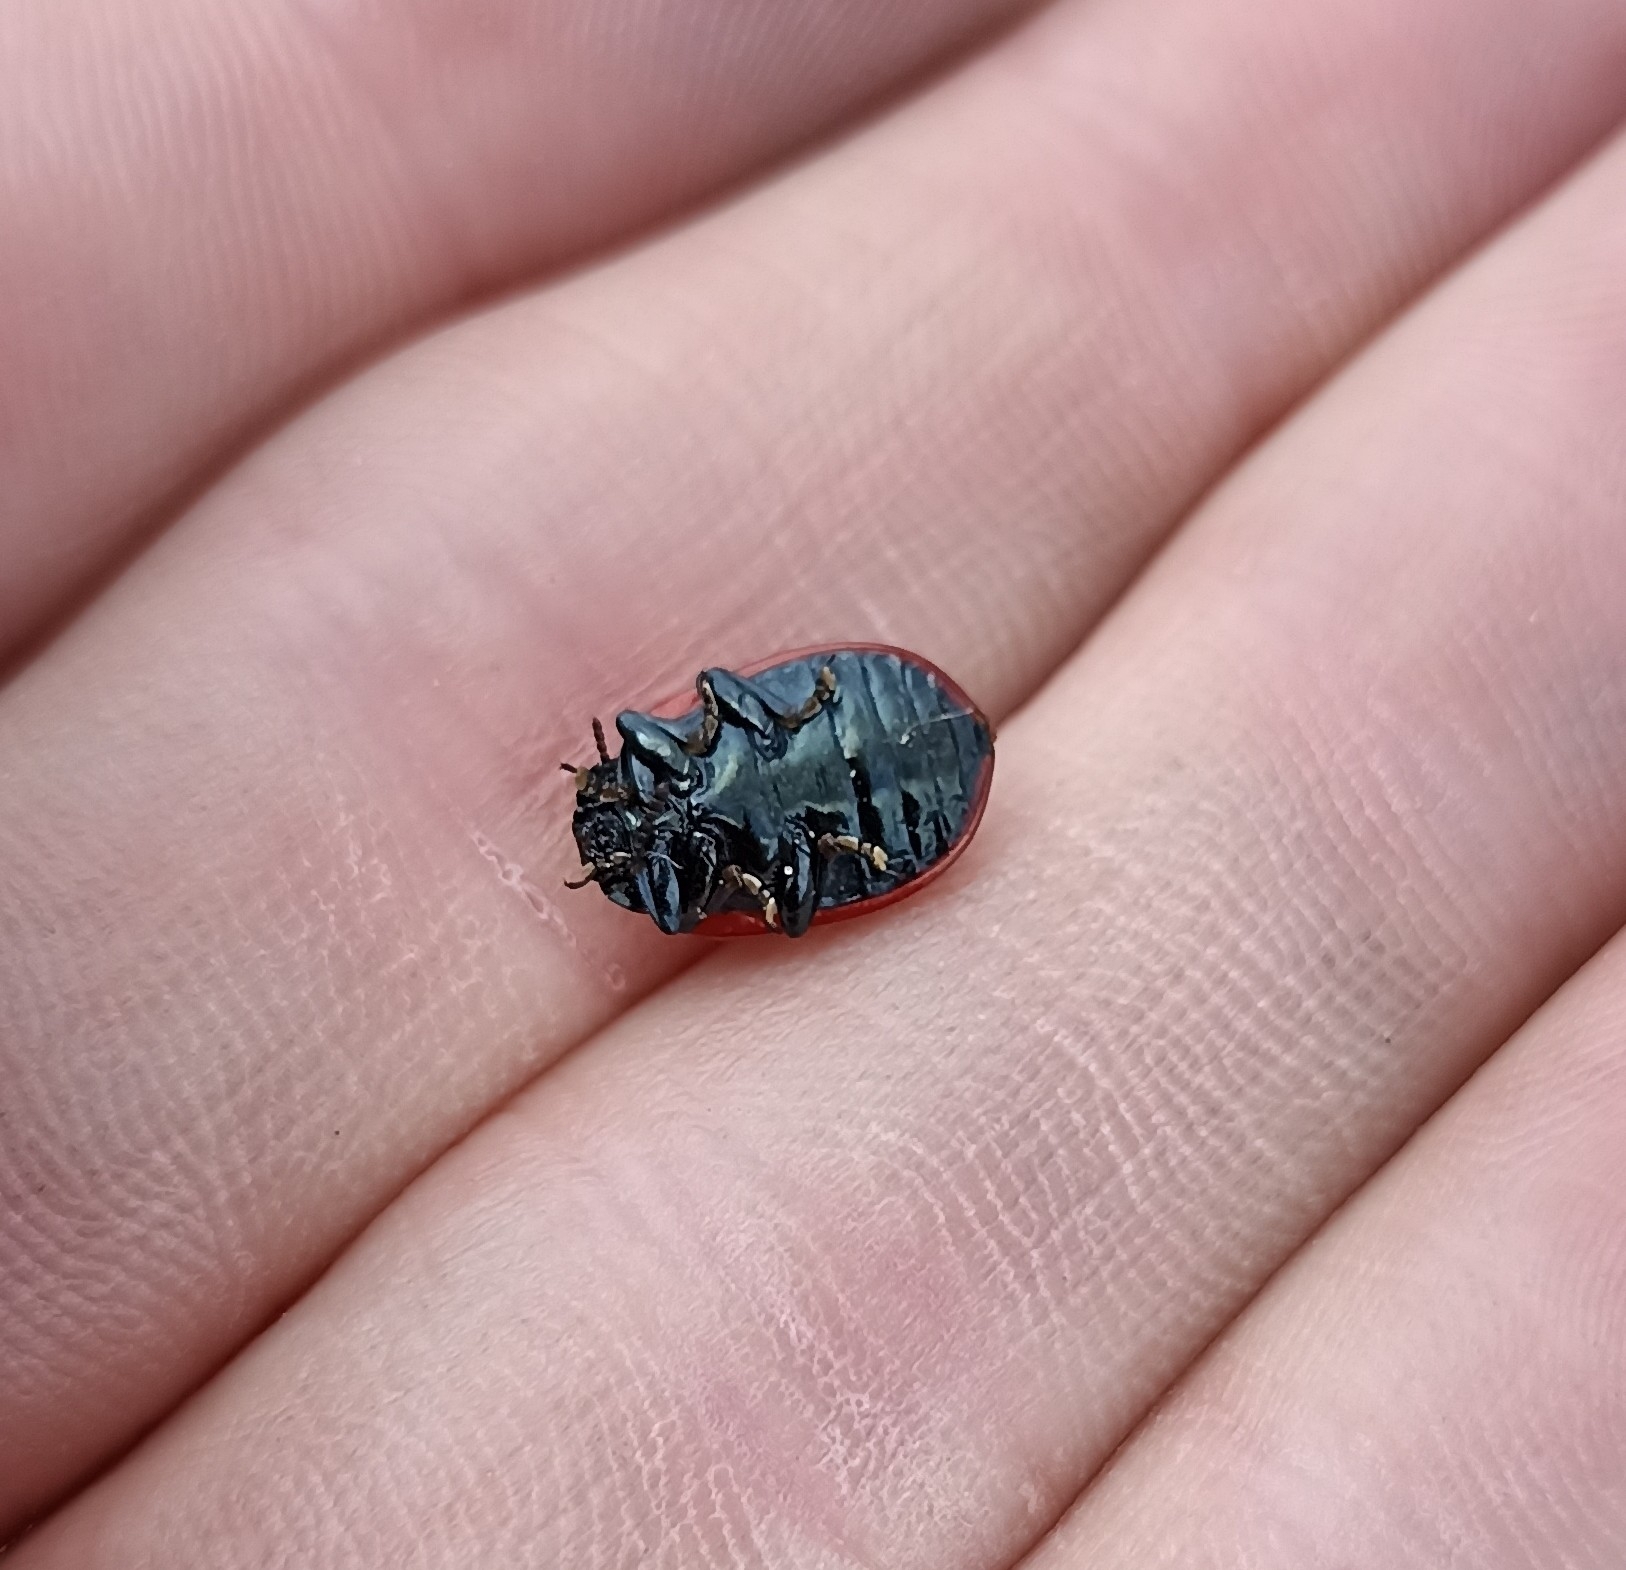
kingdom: Animalia
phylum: Arthropoda
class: Insecta
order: Coleoptera
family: Chrysomelidae
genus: Chrysomela
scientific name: Chrysomela populi
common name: Red poplar leaf beetle
